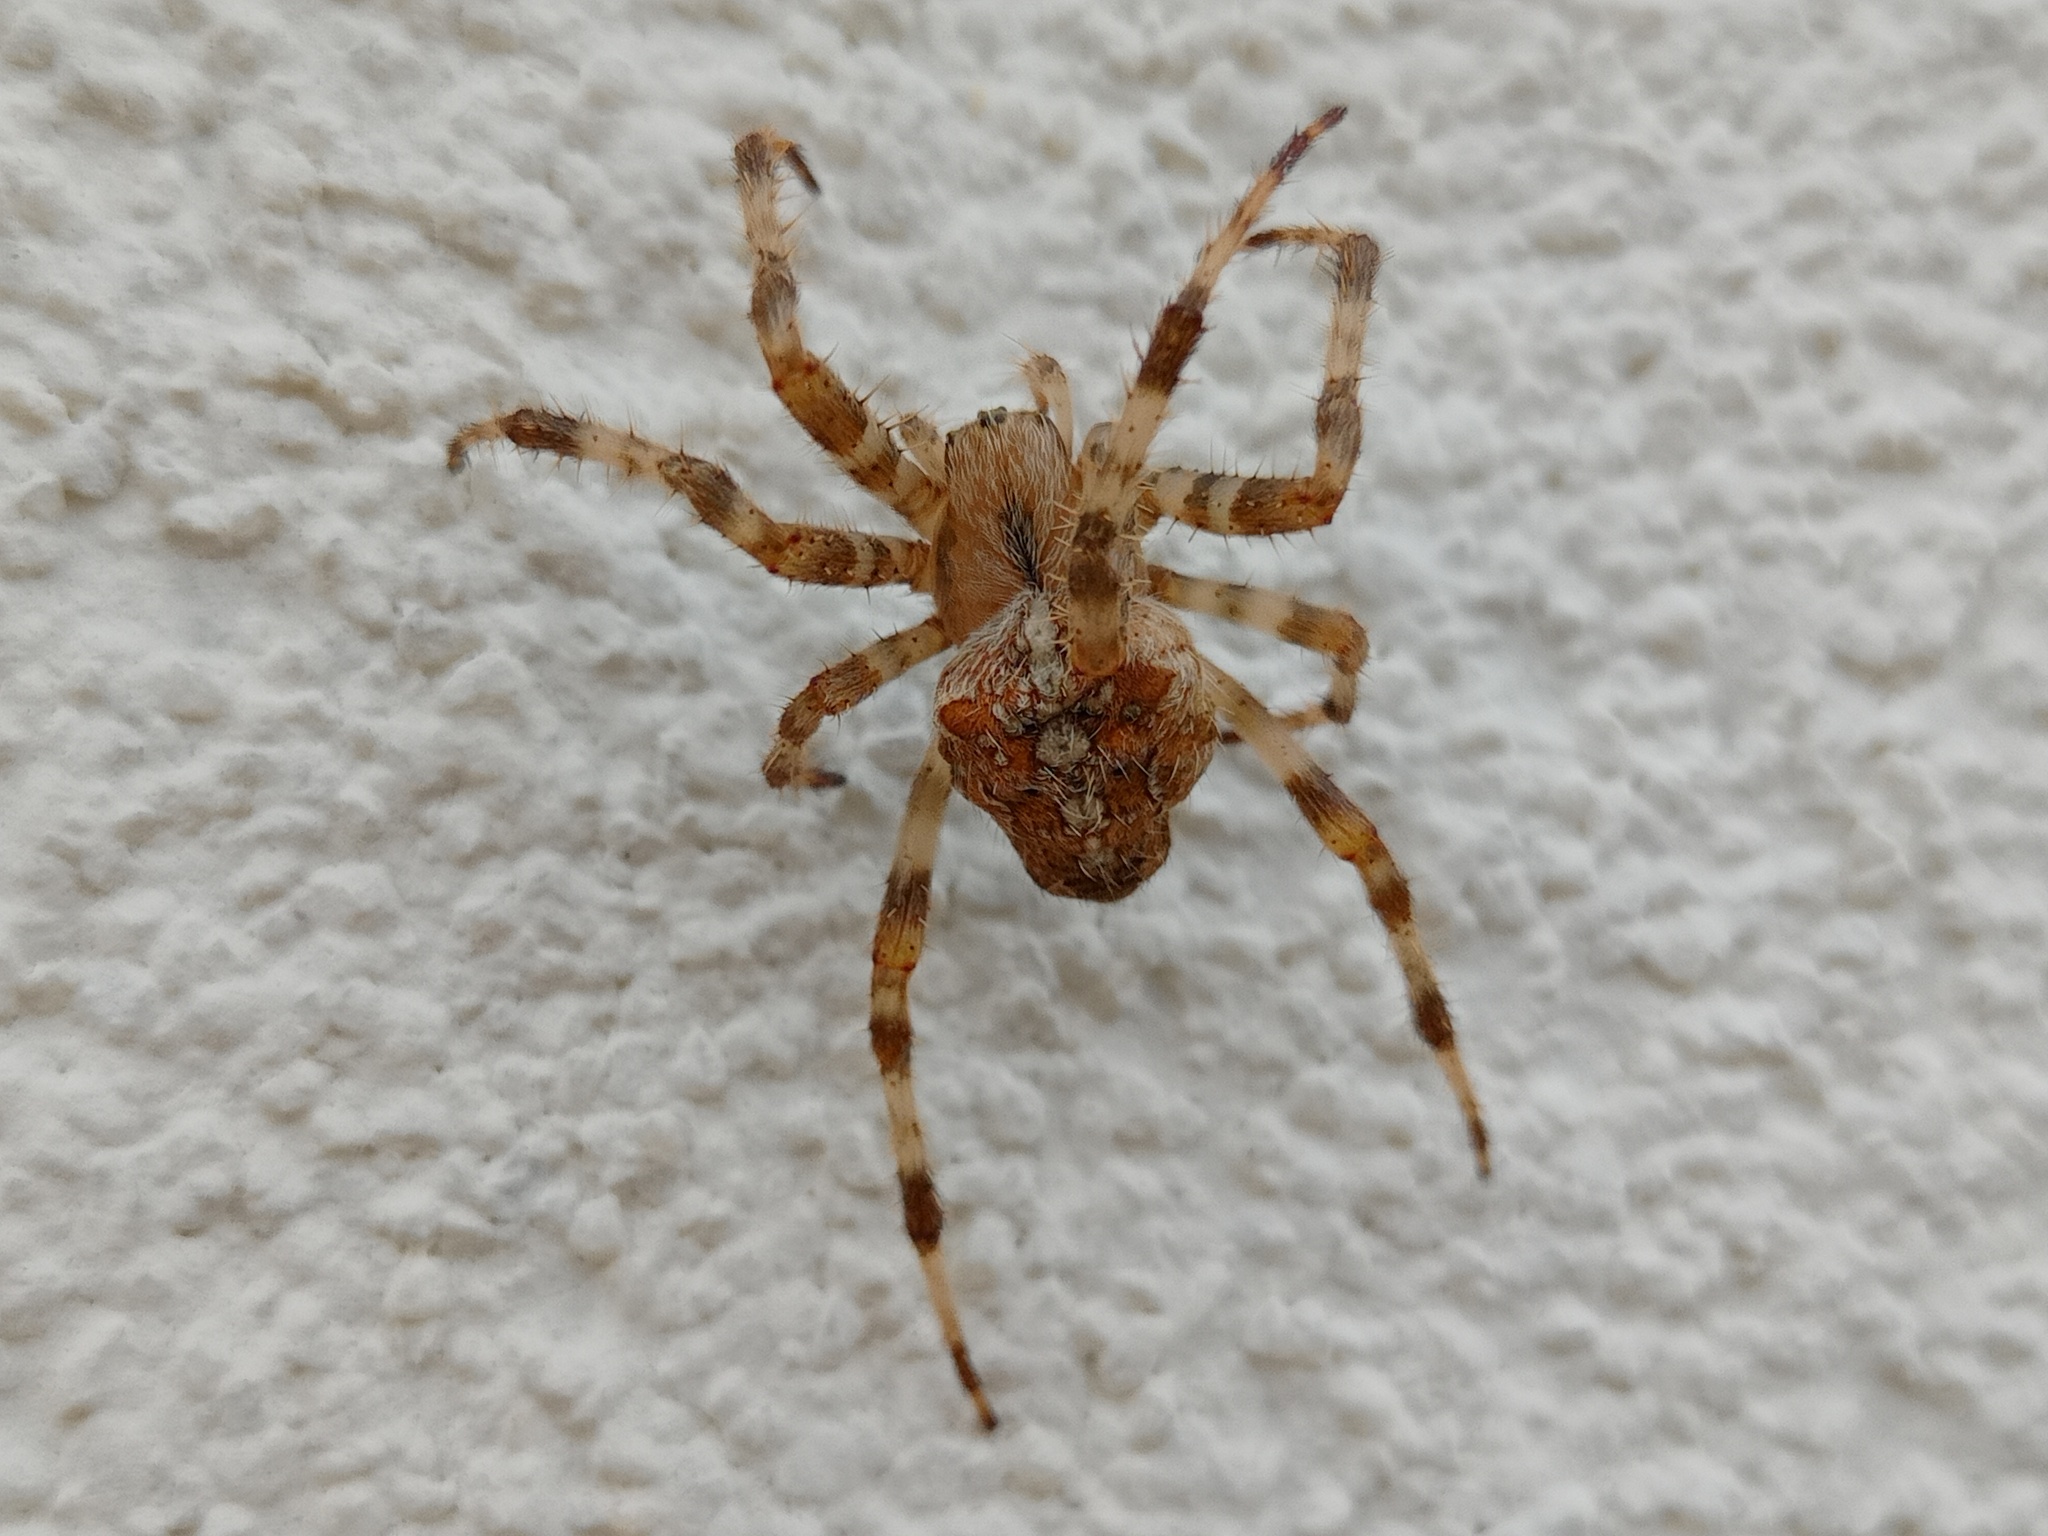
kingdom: Animalia
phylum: Arthropoda
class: Arachnida
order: Araneae
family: Araneidae
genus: Araneus
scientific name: Araneus diadematus
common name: Cross orbweaver
